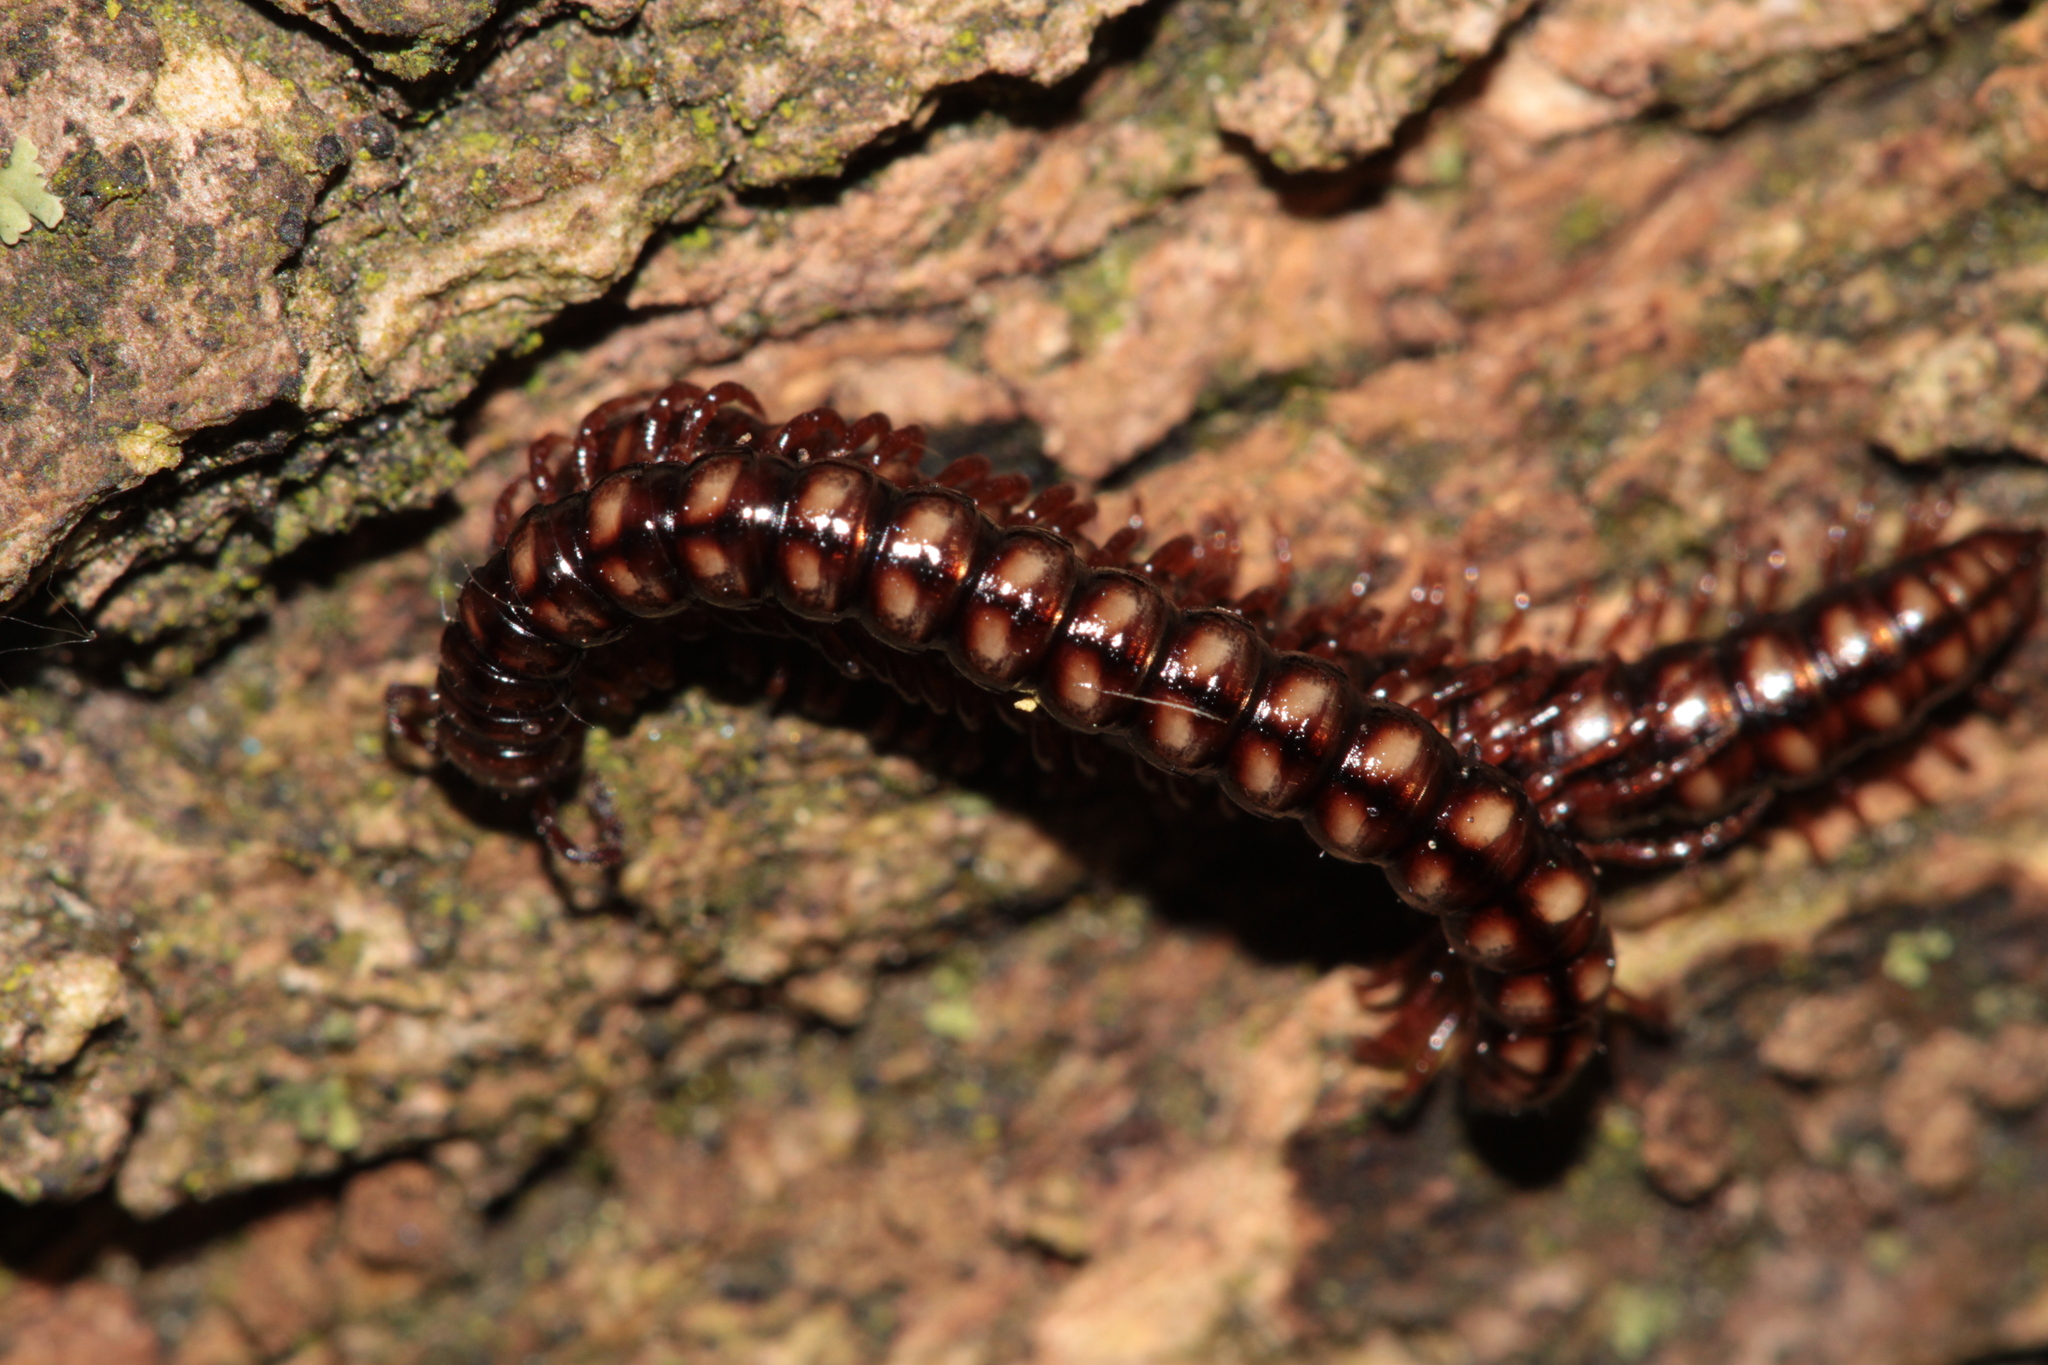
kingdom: Animalia
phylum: Arthropoda
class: Diplopoda
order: Polydesmida
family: Paradoxosomatidae
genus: Strongylosoma
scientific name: Strongylosoma stigmatosus
